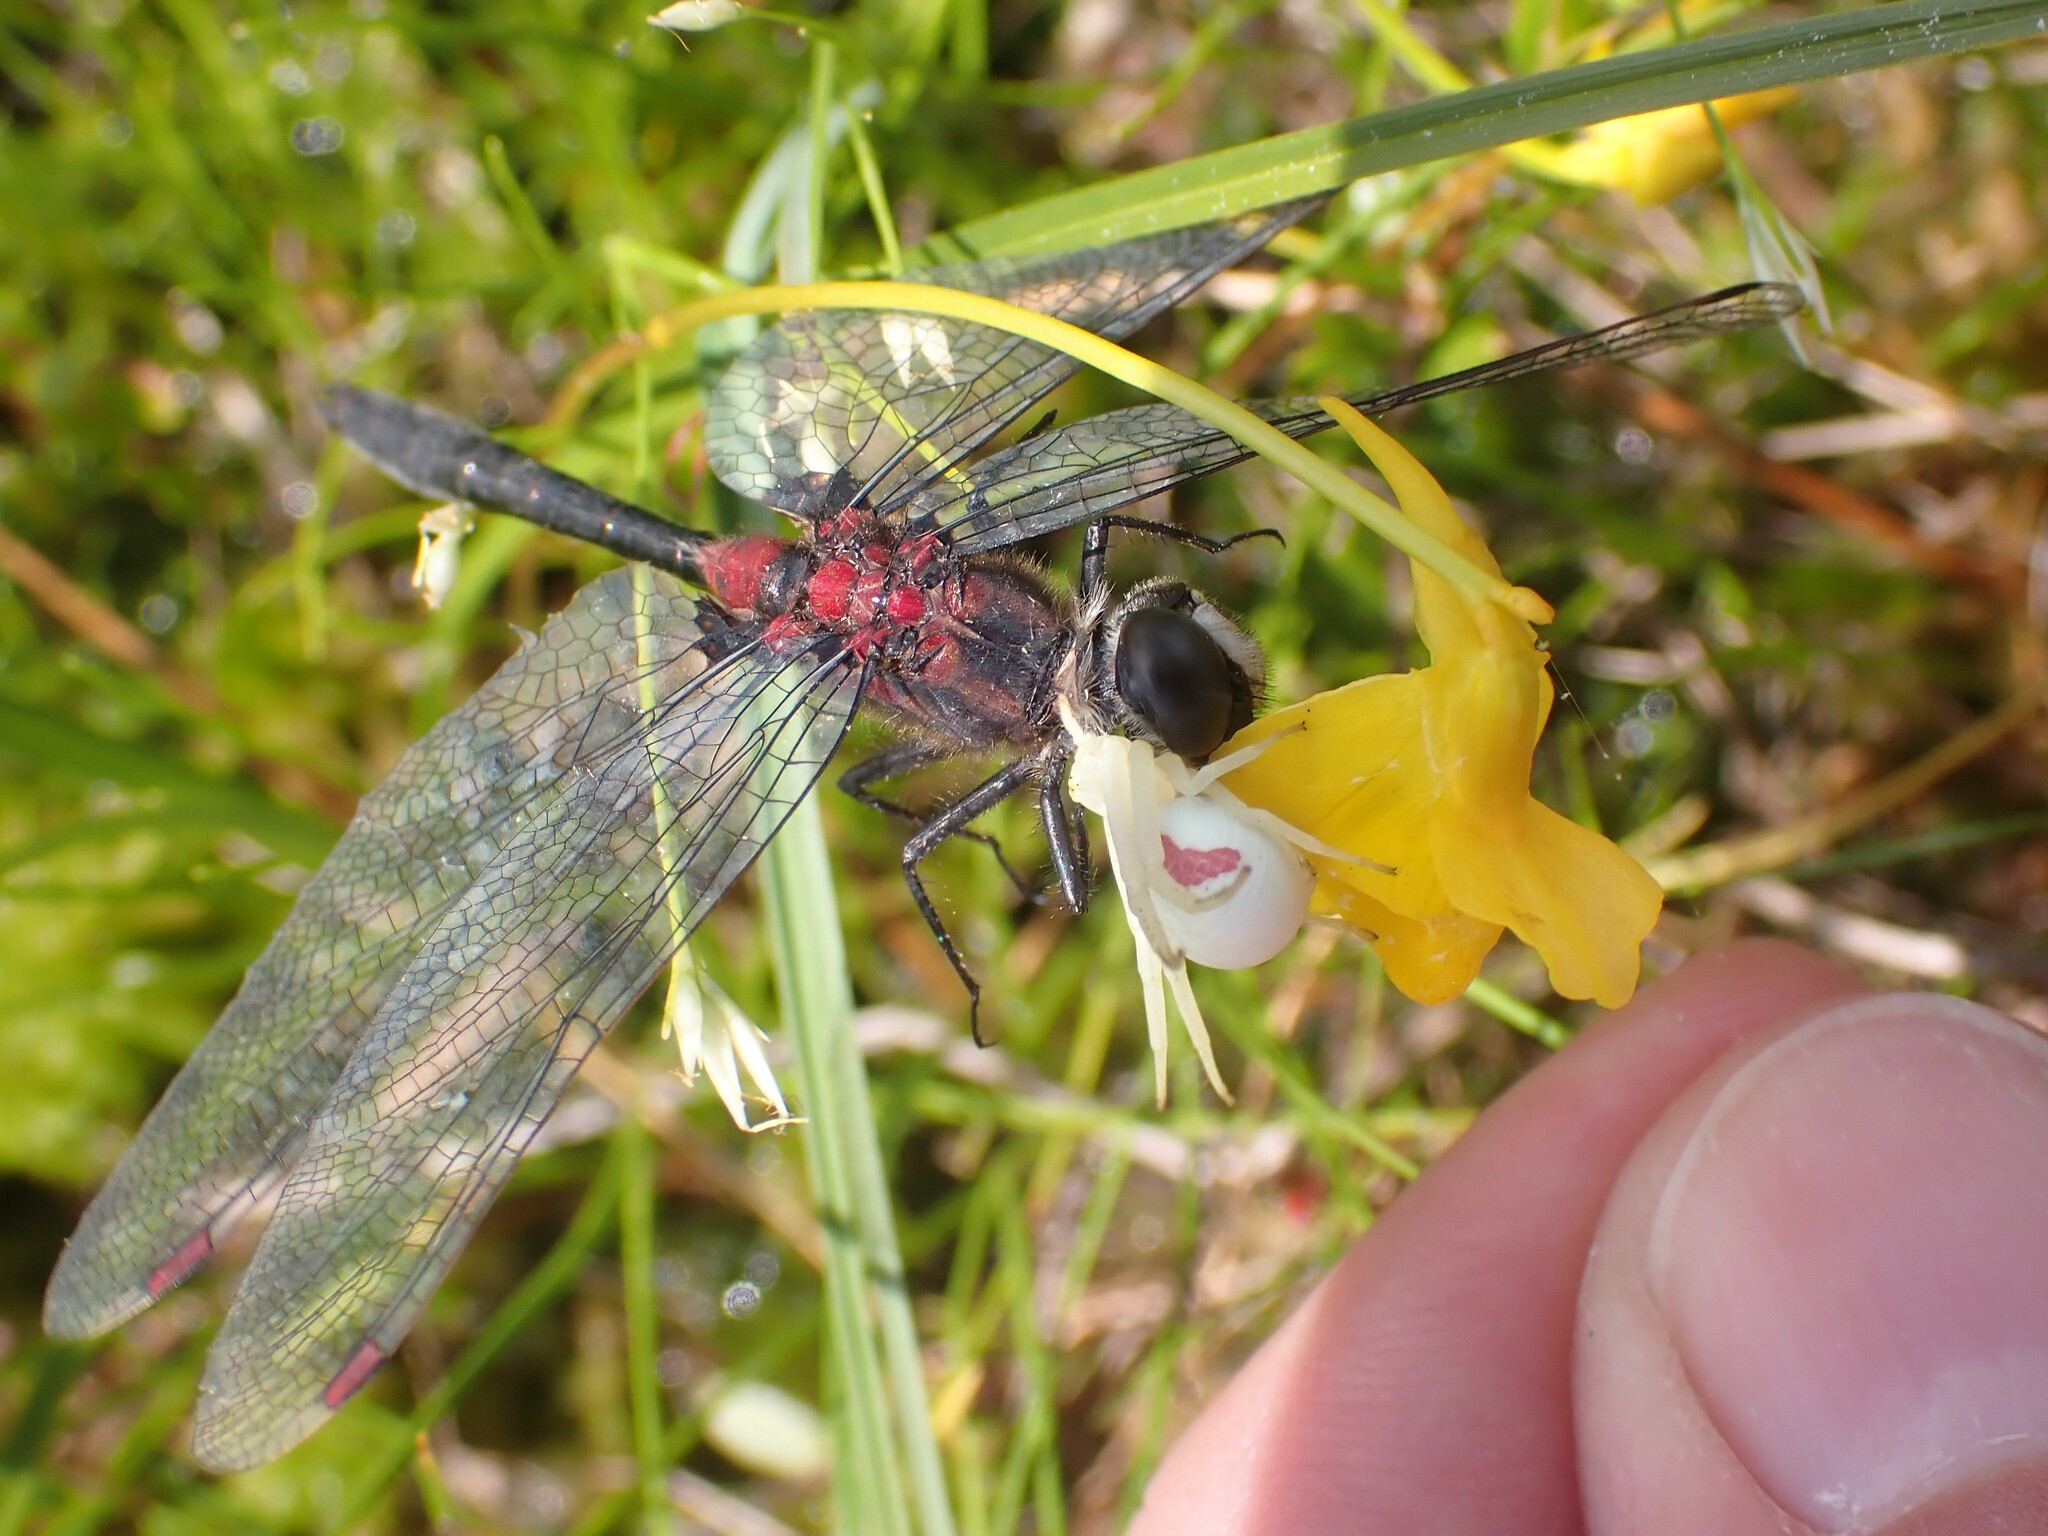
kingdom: Animalia
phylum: Arthropoda
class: Arachnida
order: Araneae
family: Thomisidae
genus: Misumena
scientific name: Misumena vatia
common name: Goldenrod crab spider
